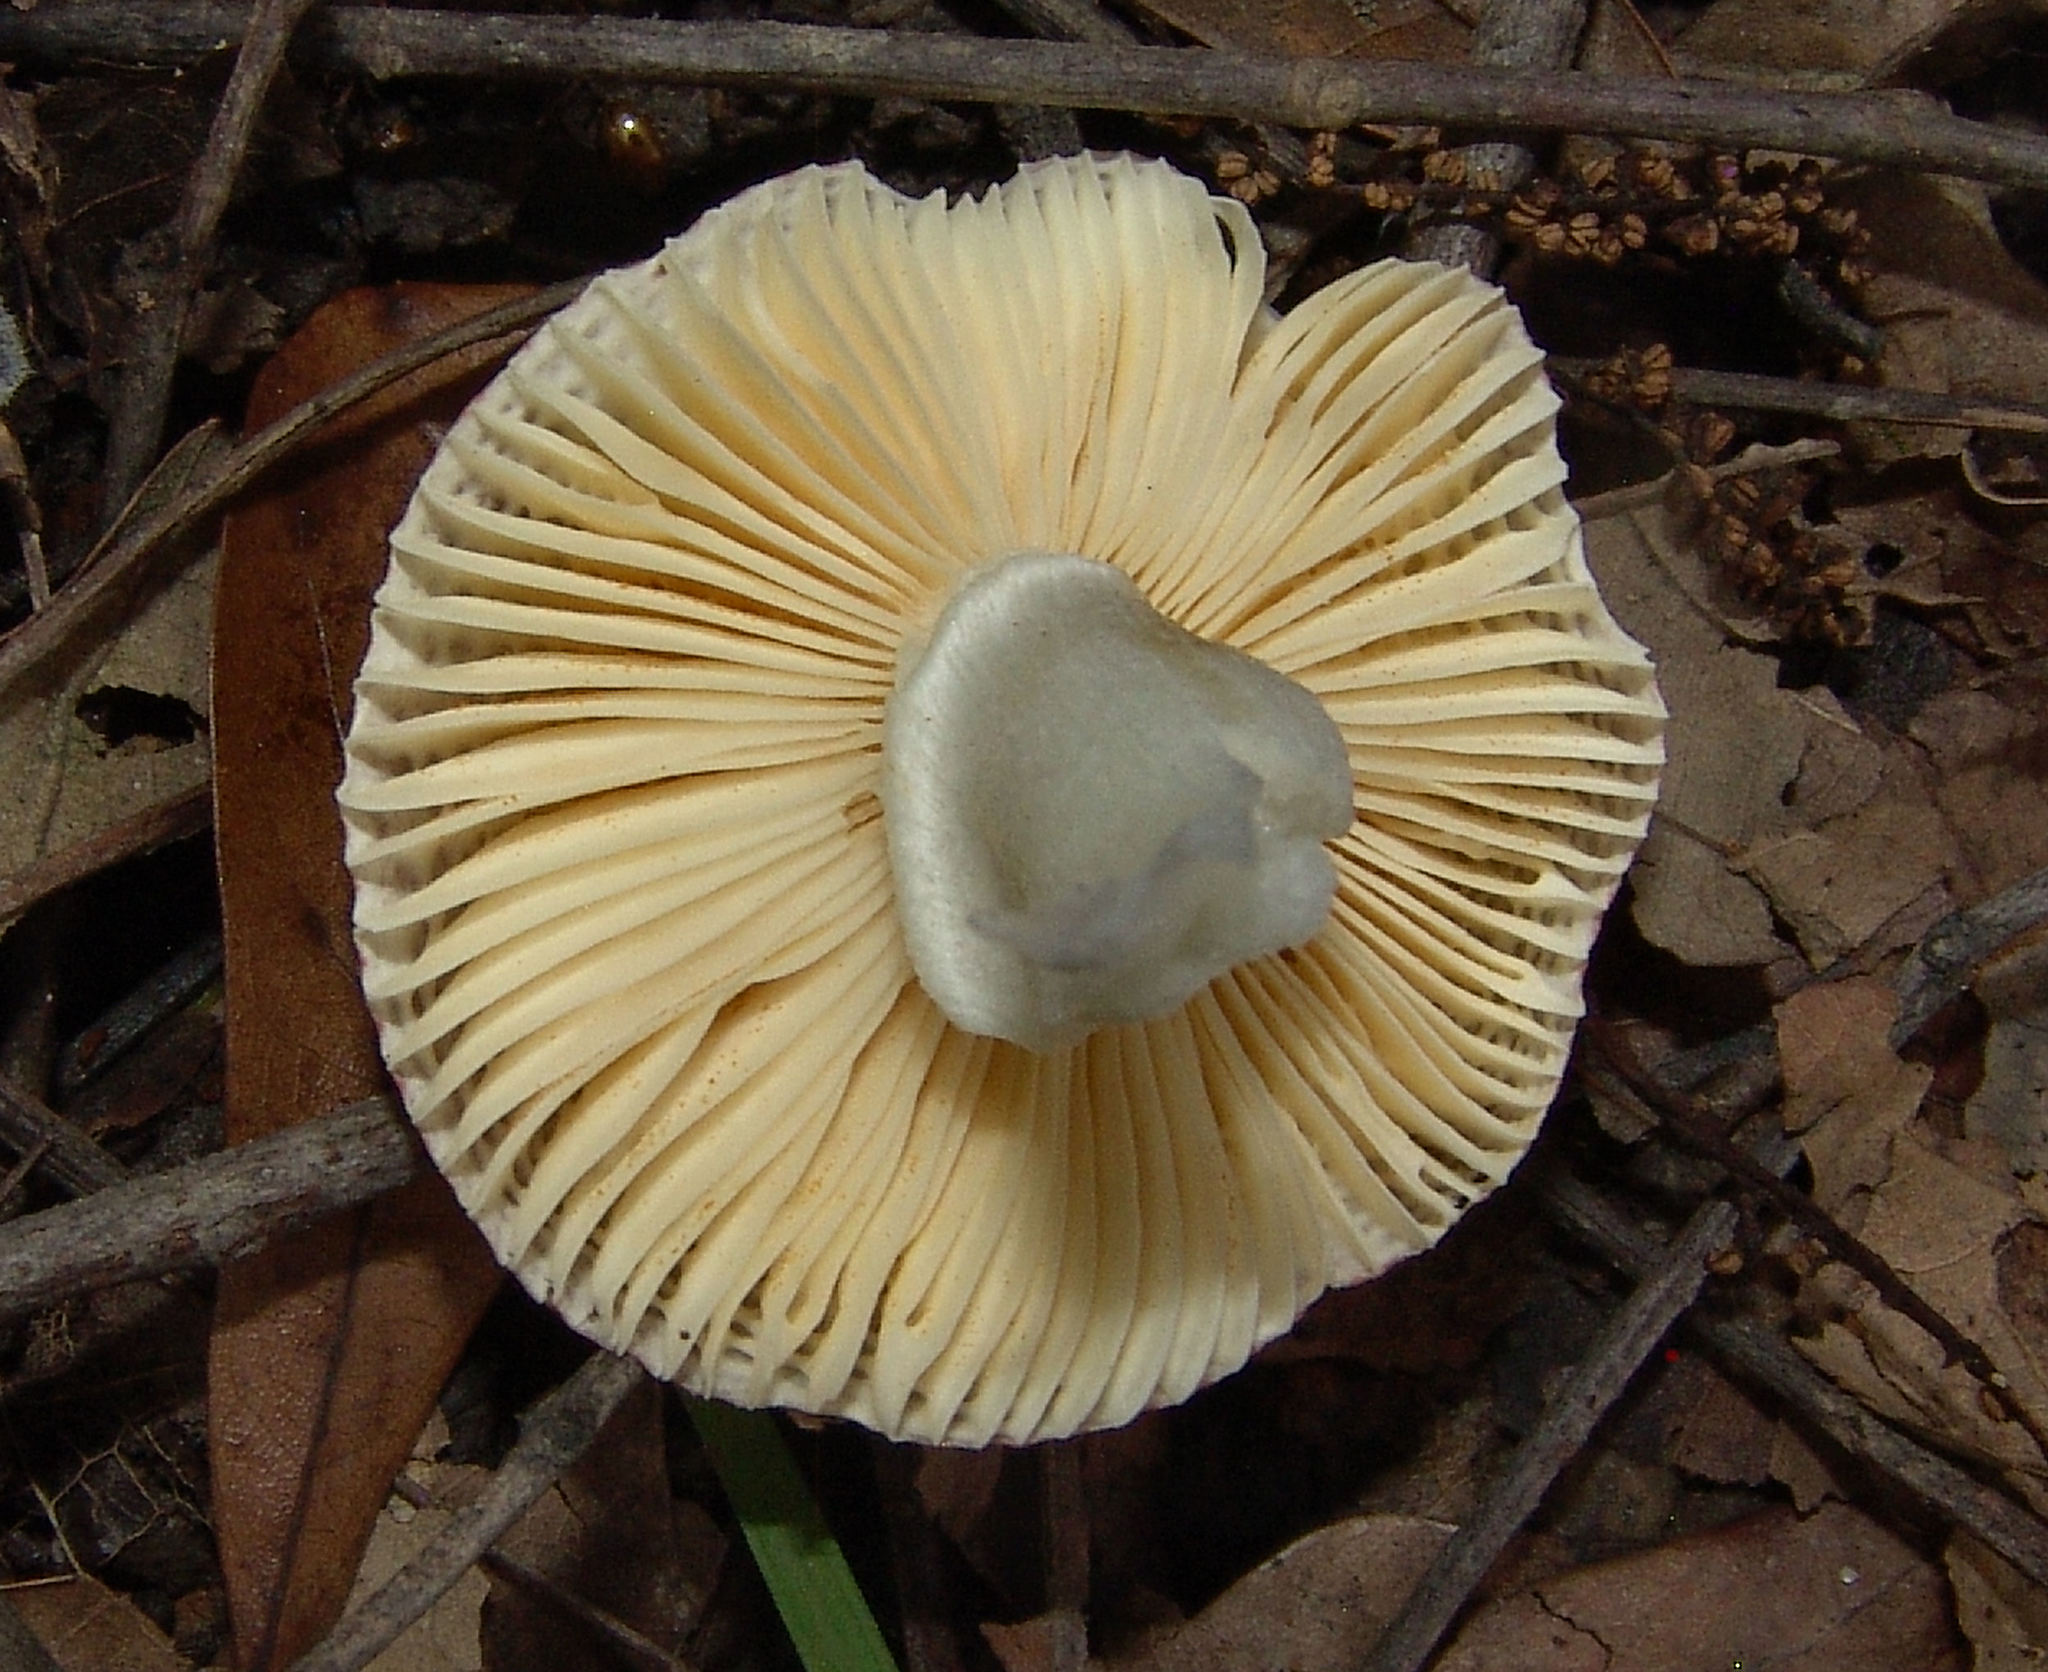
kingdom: Fungi
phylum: Basidiomycota
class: Agaricomycetes
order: Russulales
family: Russulaceae
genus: Russula
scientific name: Russula
